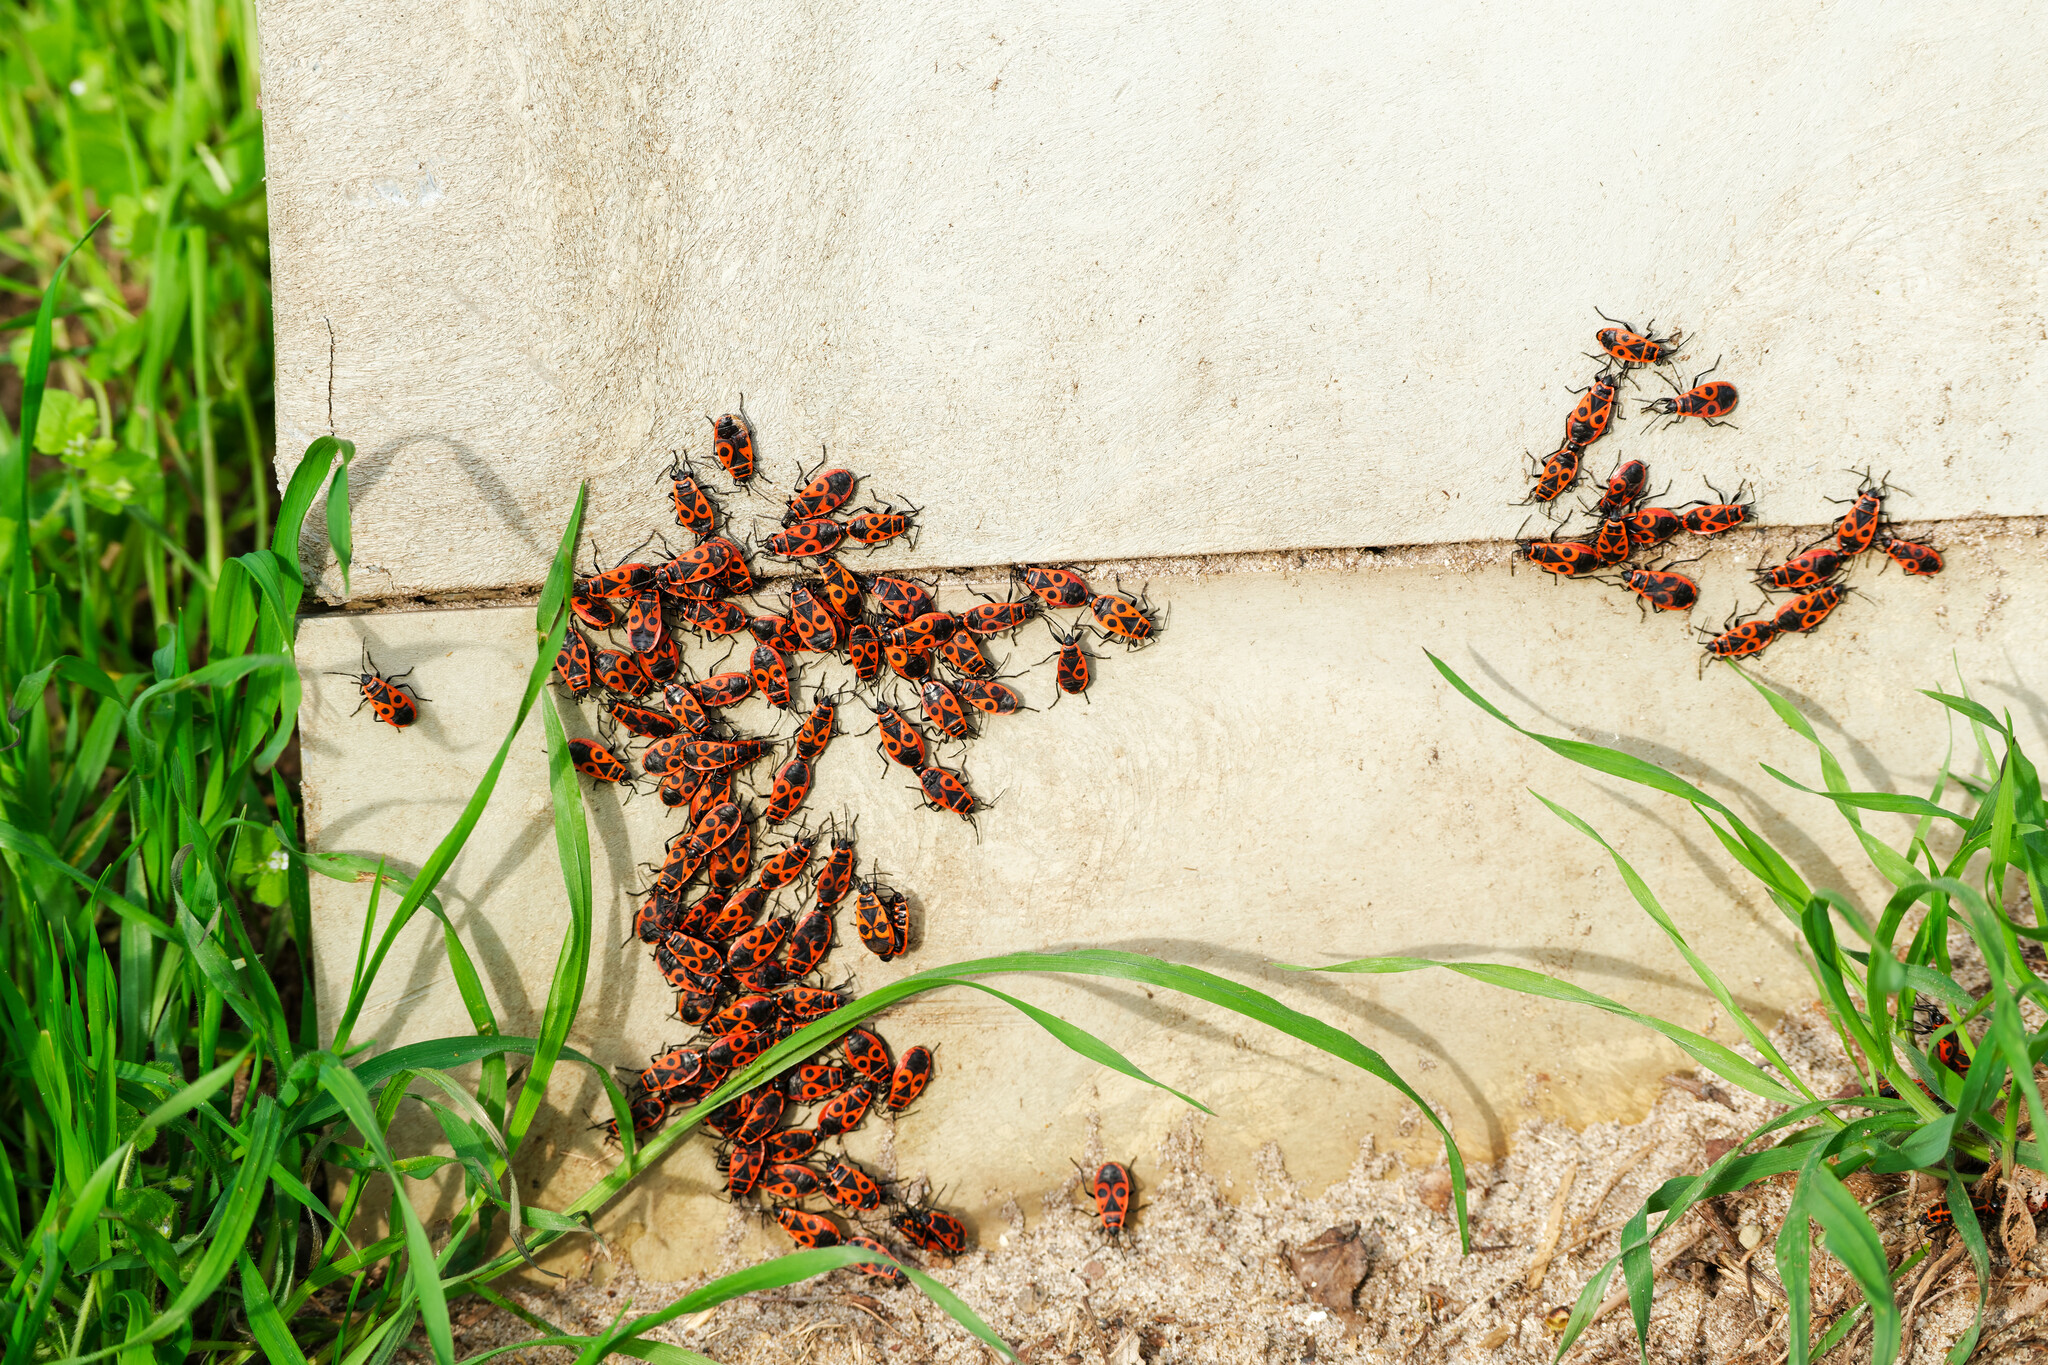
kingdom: Animalia
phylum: Arthropoda
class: Insecta
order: Hemiptera
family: Pyrrhocoridae
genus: Pyrrhocoris
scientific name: Pyrrhocoris apterus
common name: Firebug
